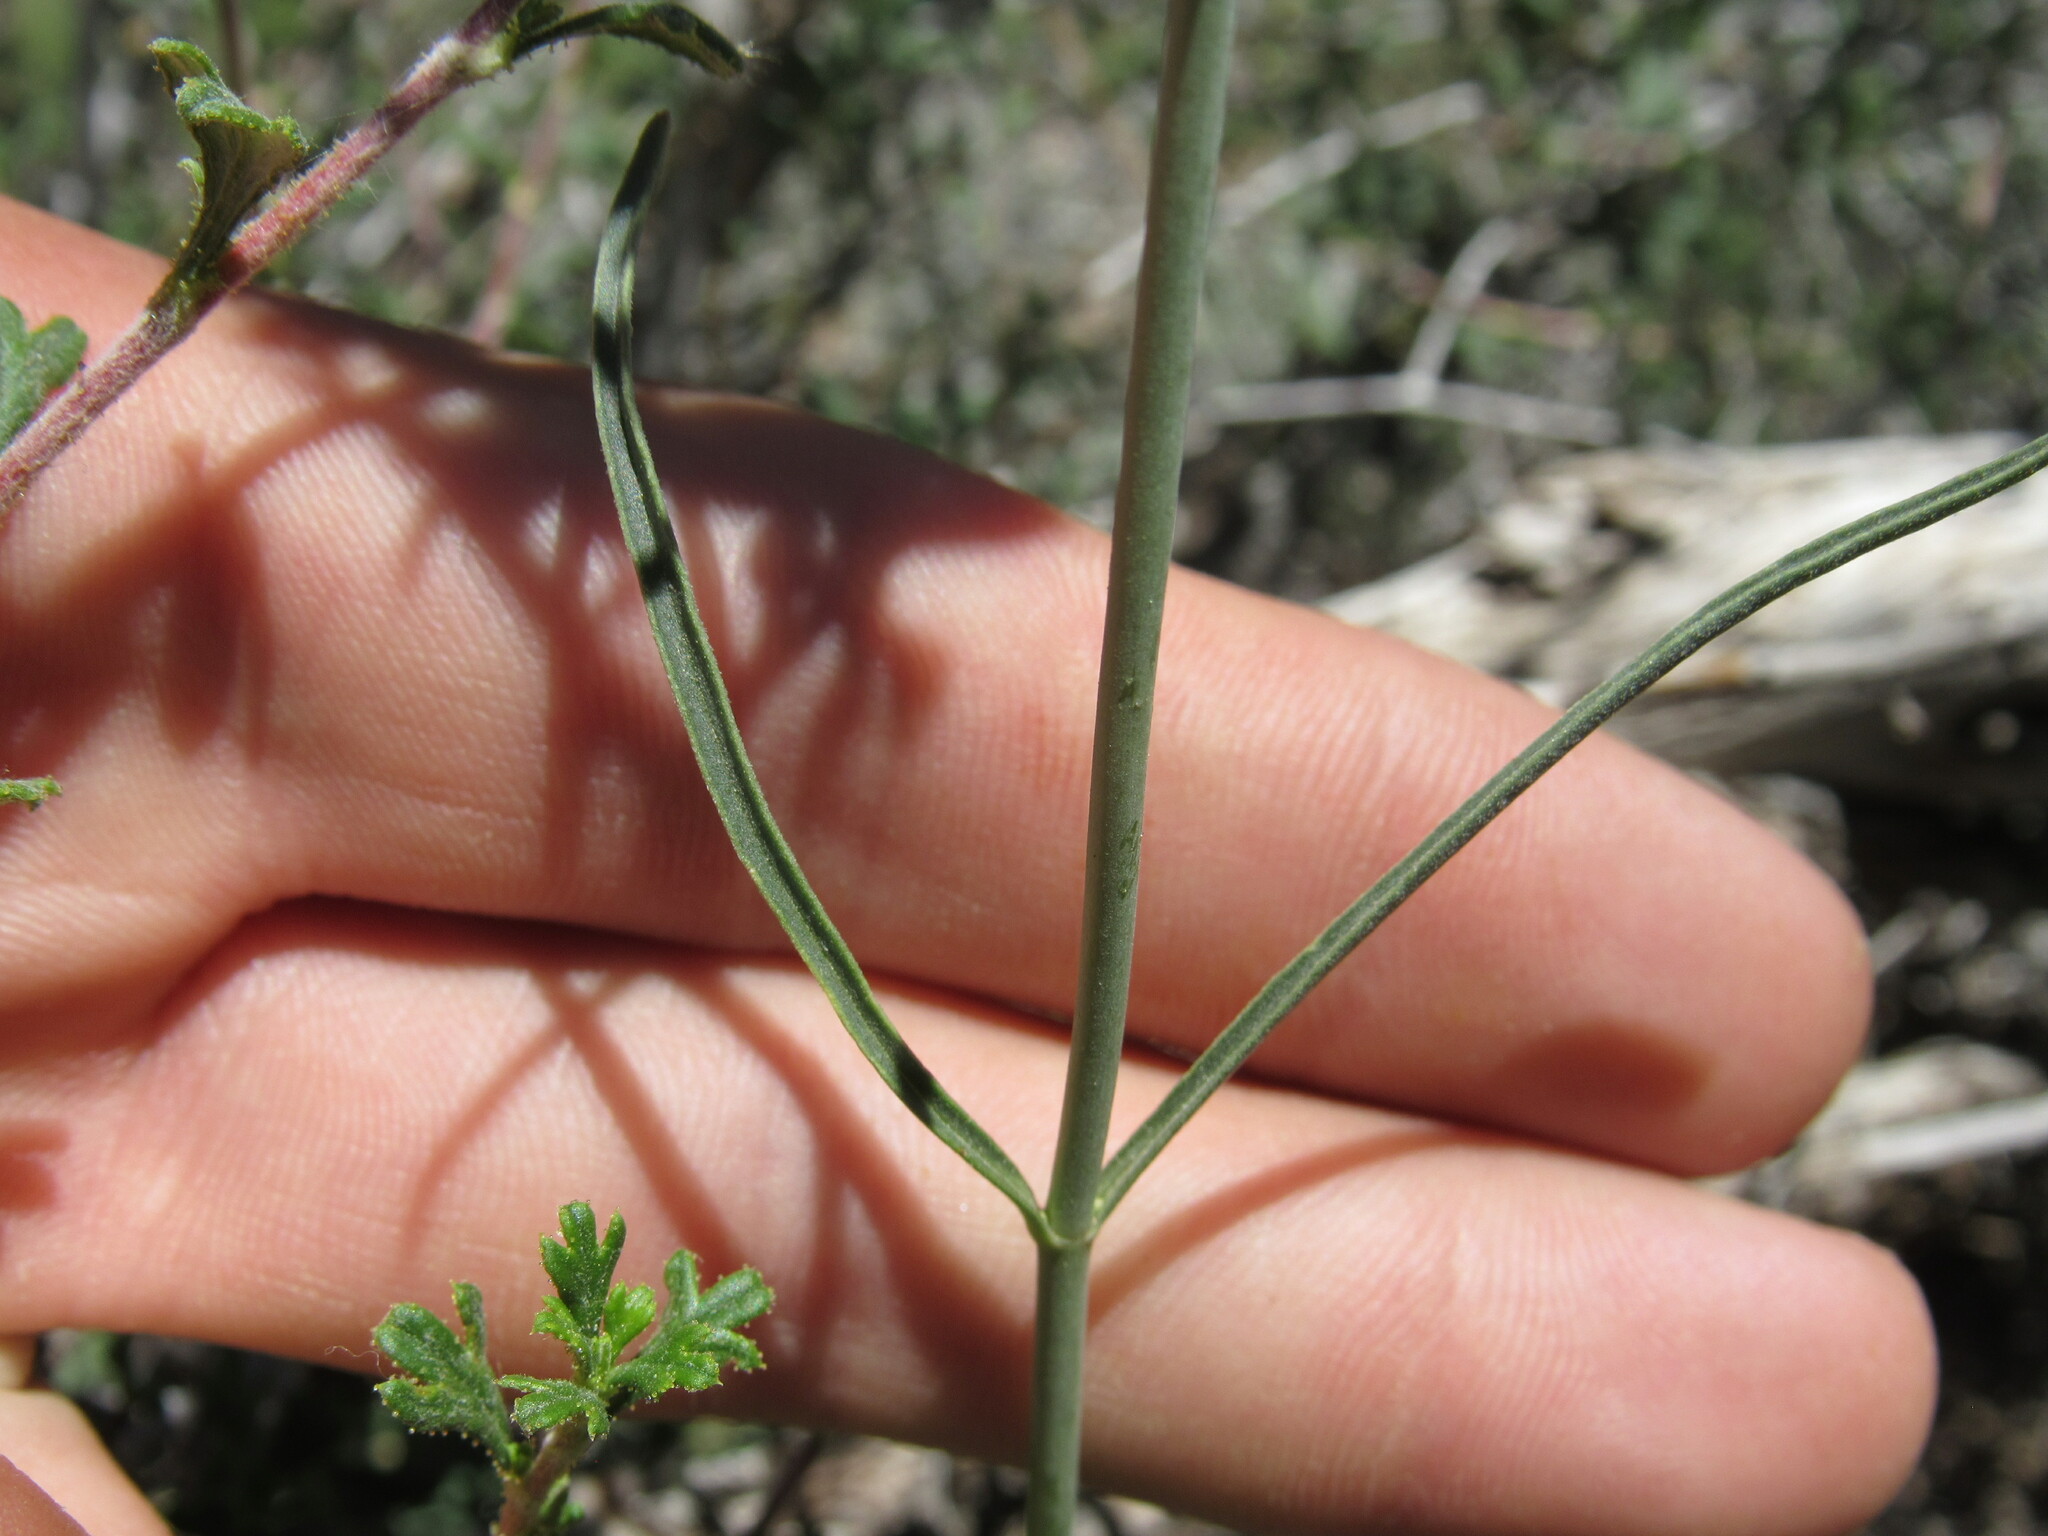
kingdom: Plantae
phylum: Tracheophyta
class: Magnoliopsida
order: Lamiales
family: Plantaginaceae
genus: Penstemon
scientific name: Penstemon comarrhenus
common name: Dusty penstemon
